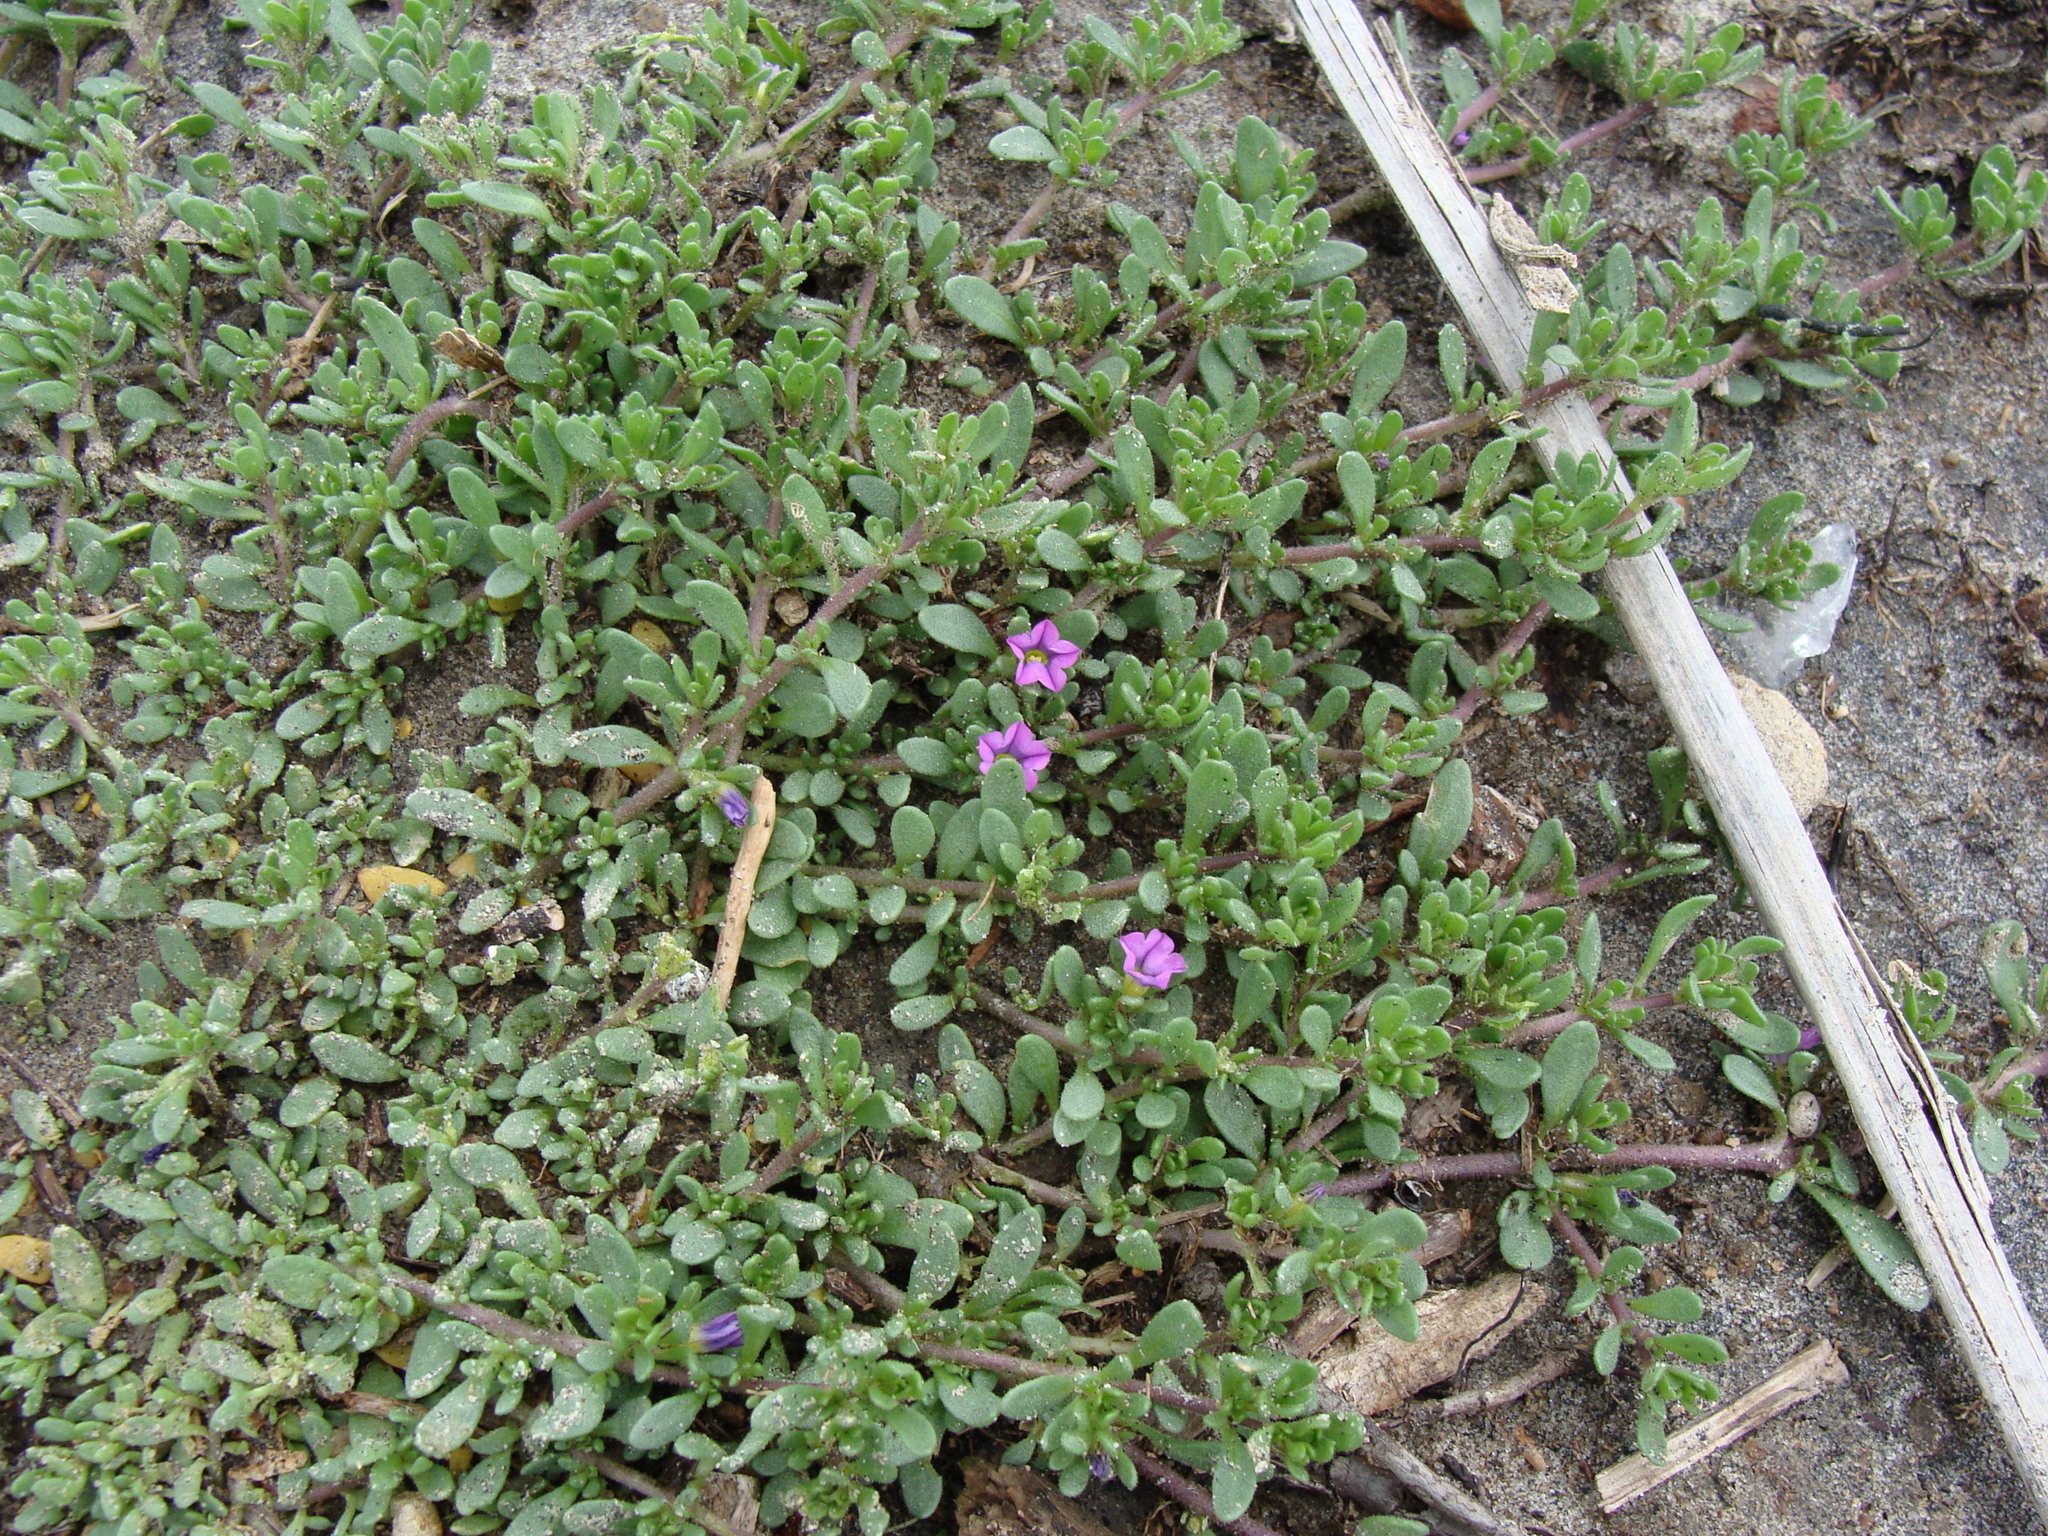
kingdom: Plantae
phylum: Tracheophyta
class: Magnoliopsida
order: Solanales
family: Solanaceae
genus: Calibrachoa
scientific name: Calibrachoa parviflora
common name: Seaside petunia
